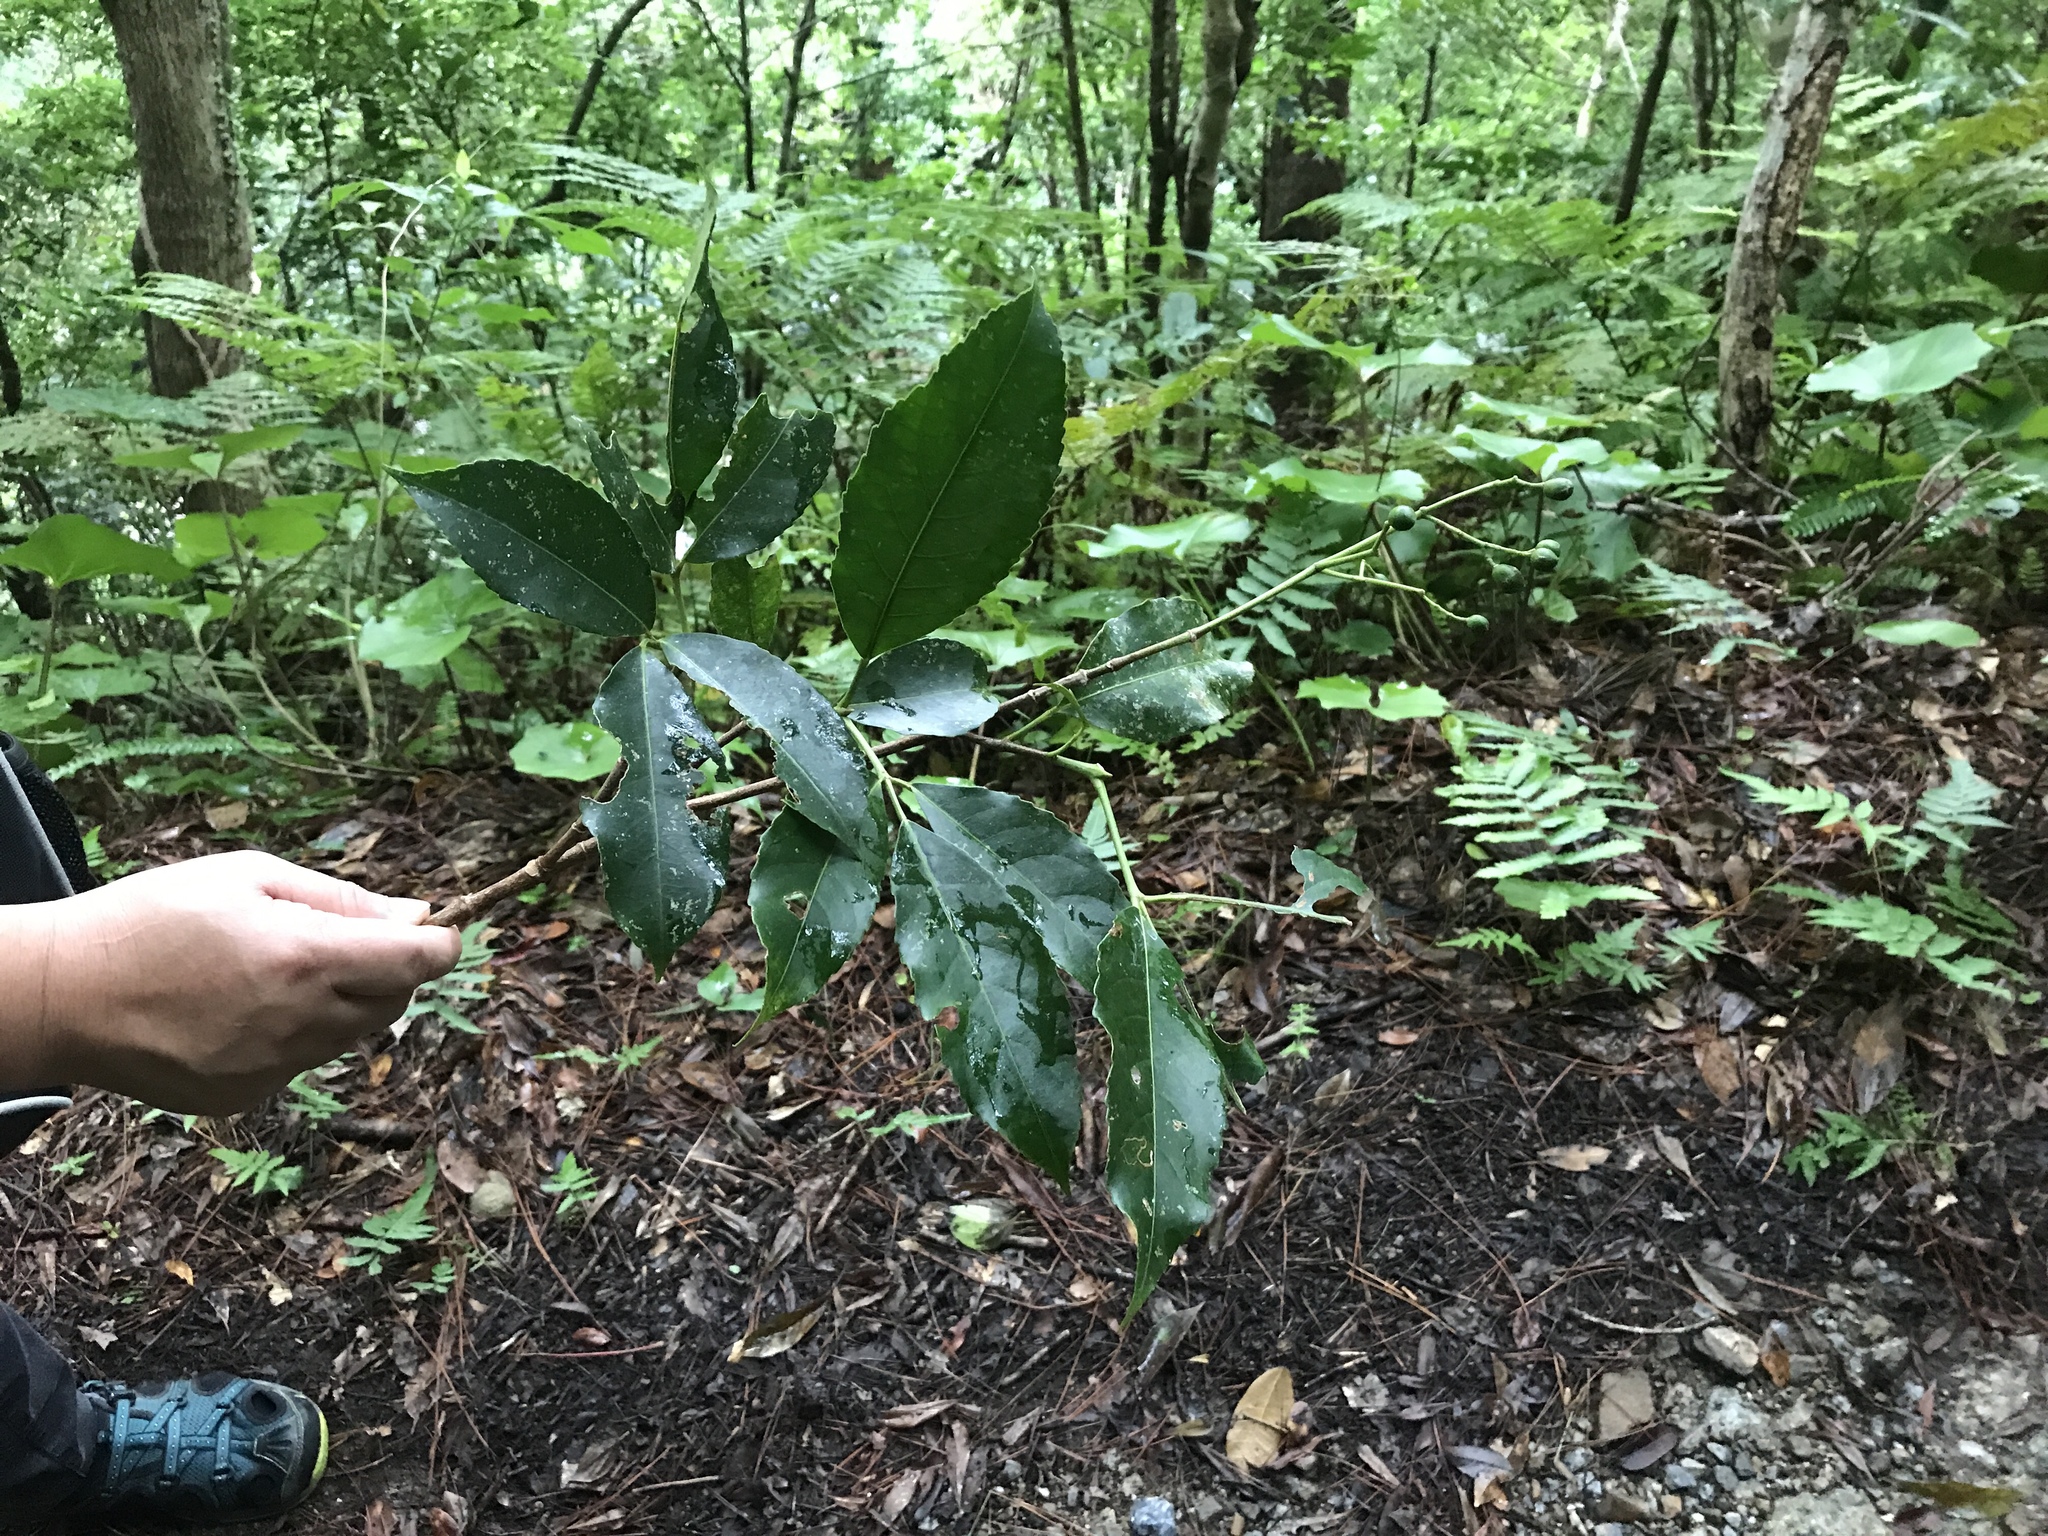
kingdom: Plantae
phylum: Tracheophyta
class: Magnoliopsida
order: Crossosomatales
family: Staphyleaceae
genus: Turpinia
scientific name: Turpinia ternata
